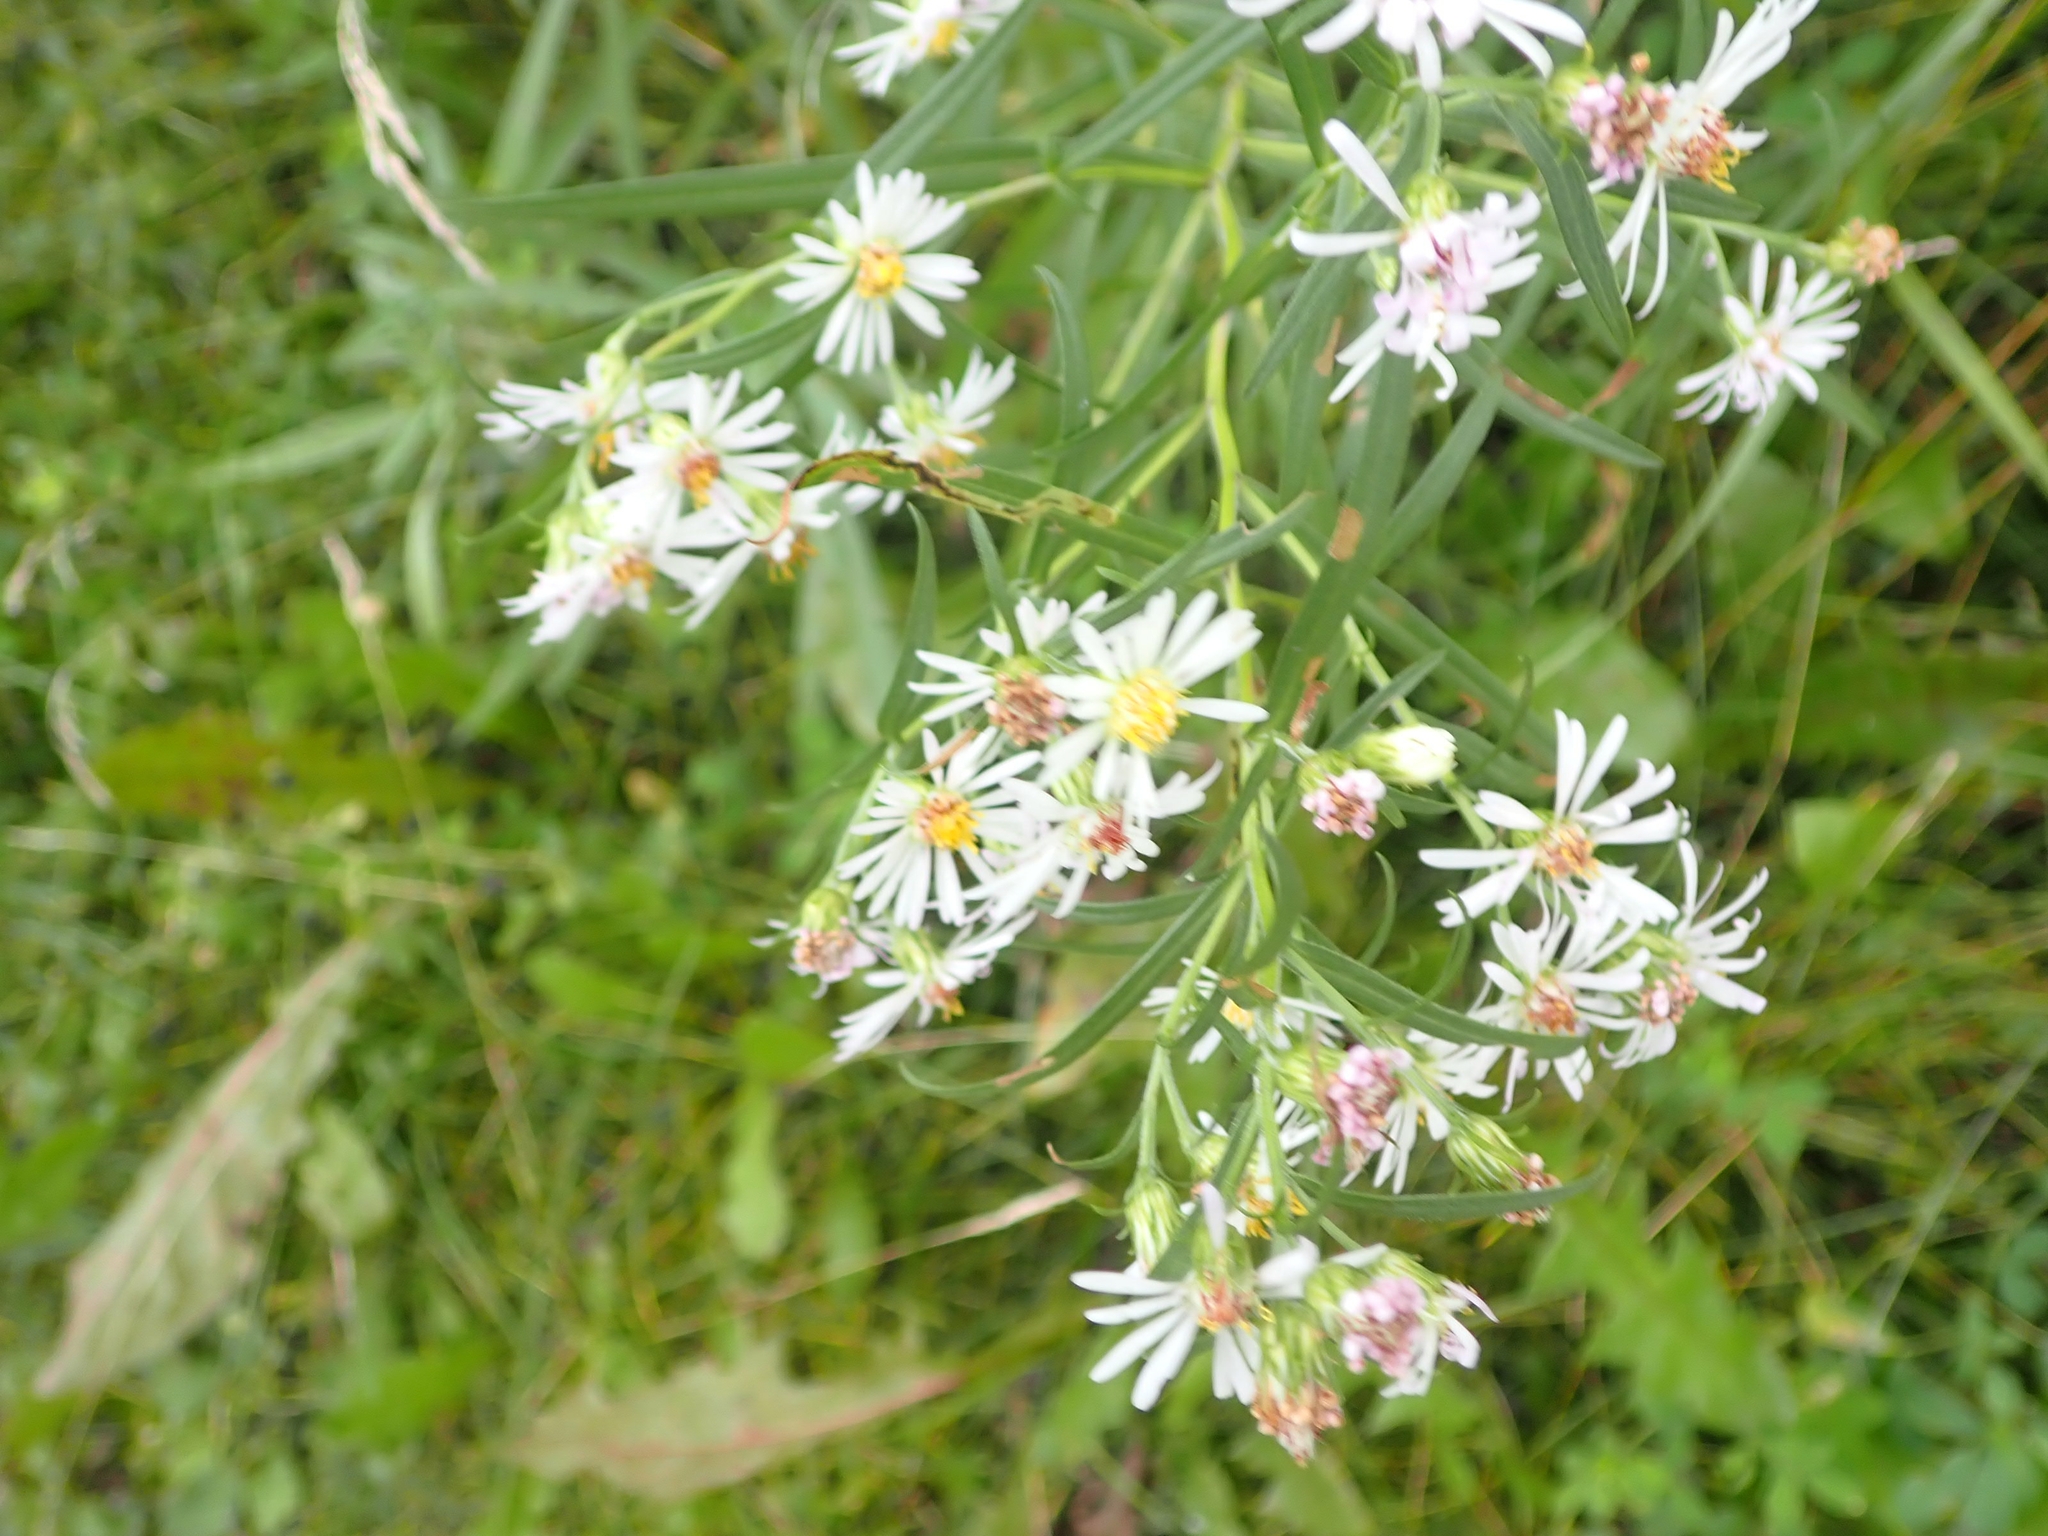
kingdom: Plantae
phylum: Tracheophyta
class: Magnoliopsida
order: Asterales
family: Asteraceae
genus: Symphyotrichum
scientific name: Symphyotrichum lanceolatum
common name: Panicled aster
